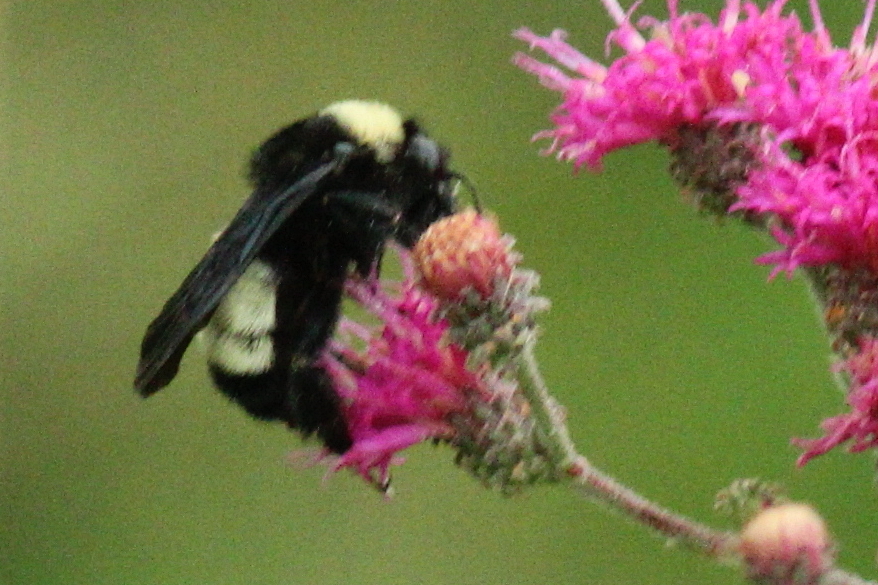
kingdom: Animalia
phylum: Arthropoda
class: Insecta
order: Hymenoptera
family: Apidae
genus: Bombus
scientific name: Bombus pensylvanicus
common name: Bumble bee
